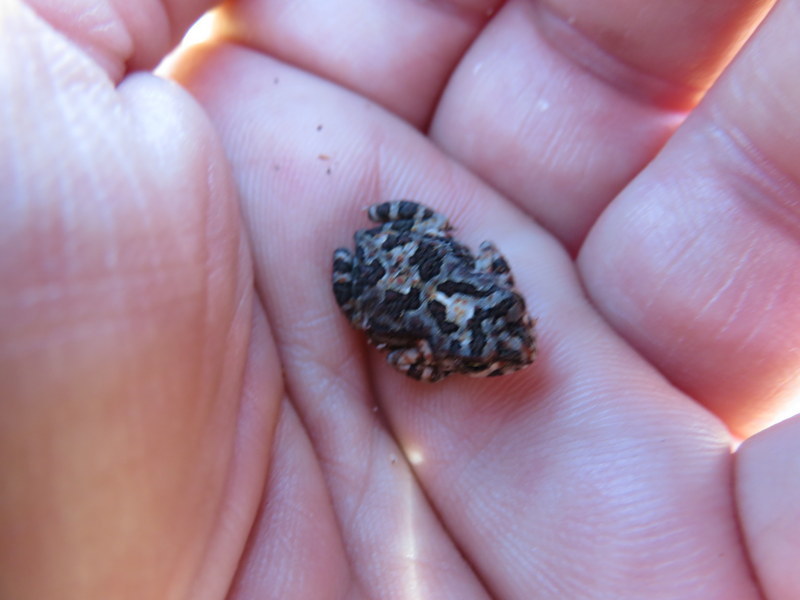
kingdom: Animalia
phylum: Chordata
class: Amphibia
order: Anura
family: Bufonidae
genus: Poyntonophrynus
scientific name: Poyntonophrynus fenoulheti
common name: Fenoulhet's toad
